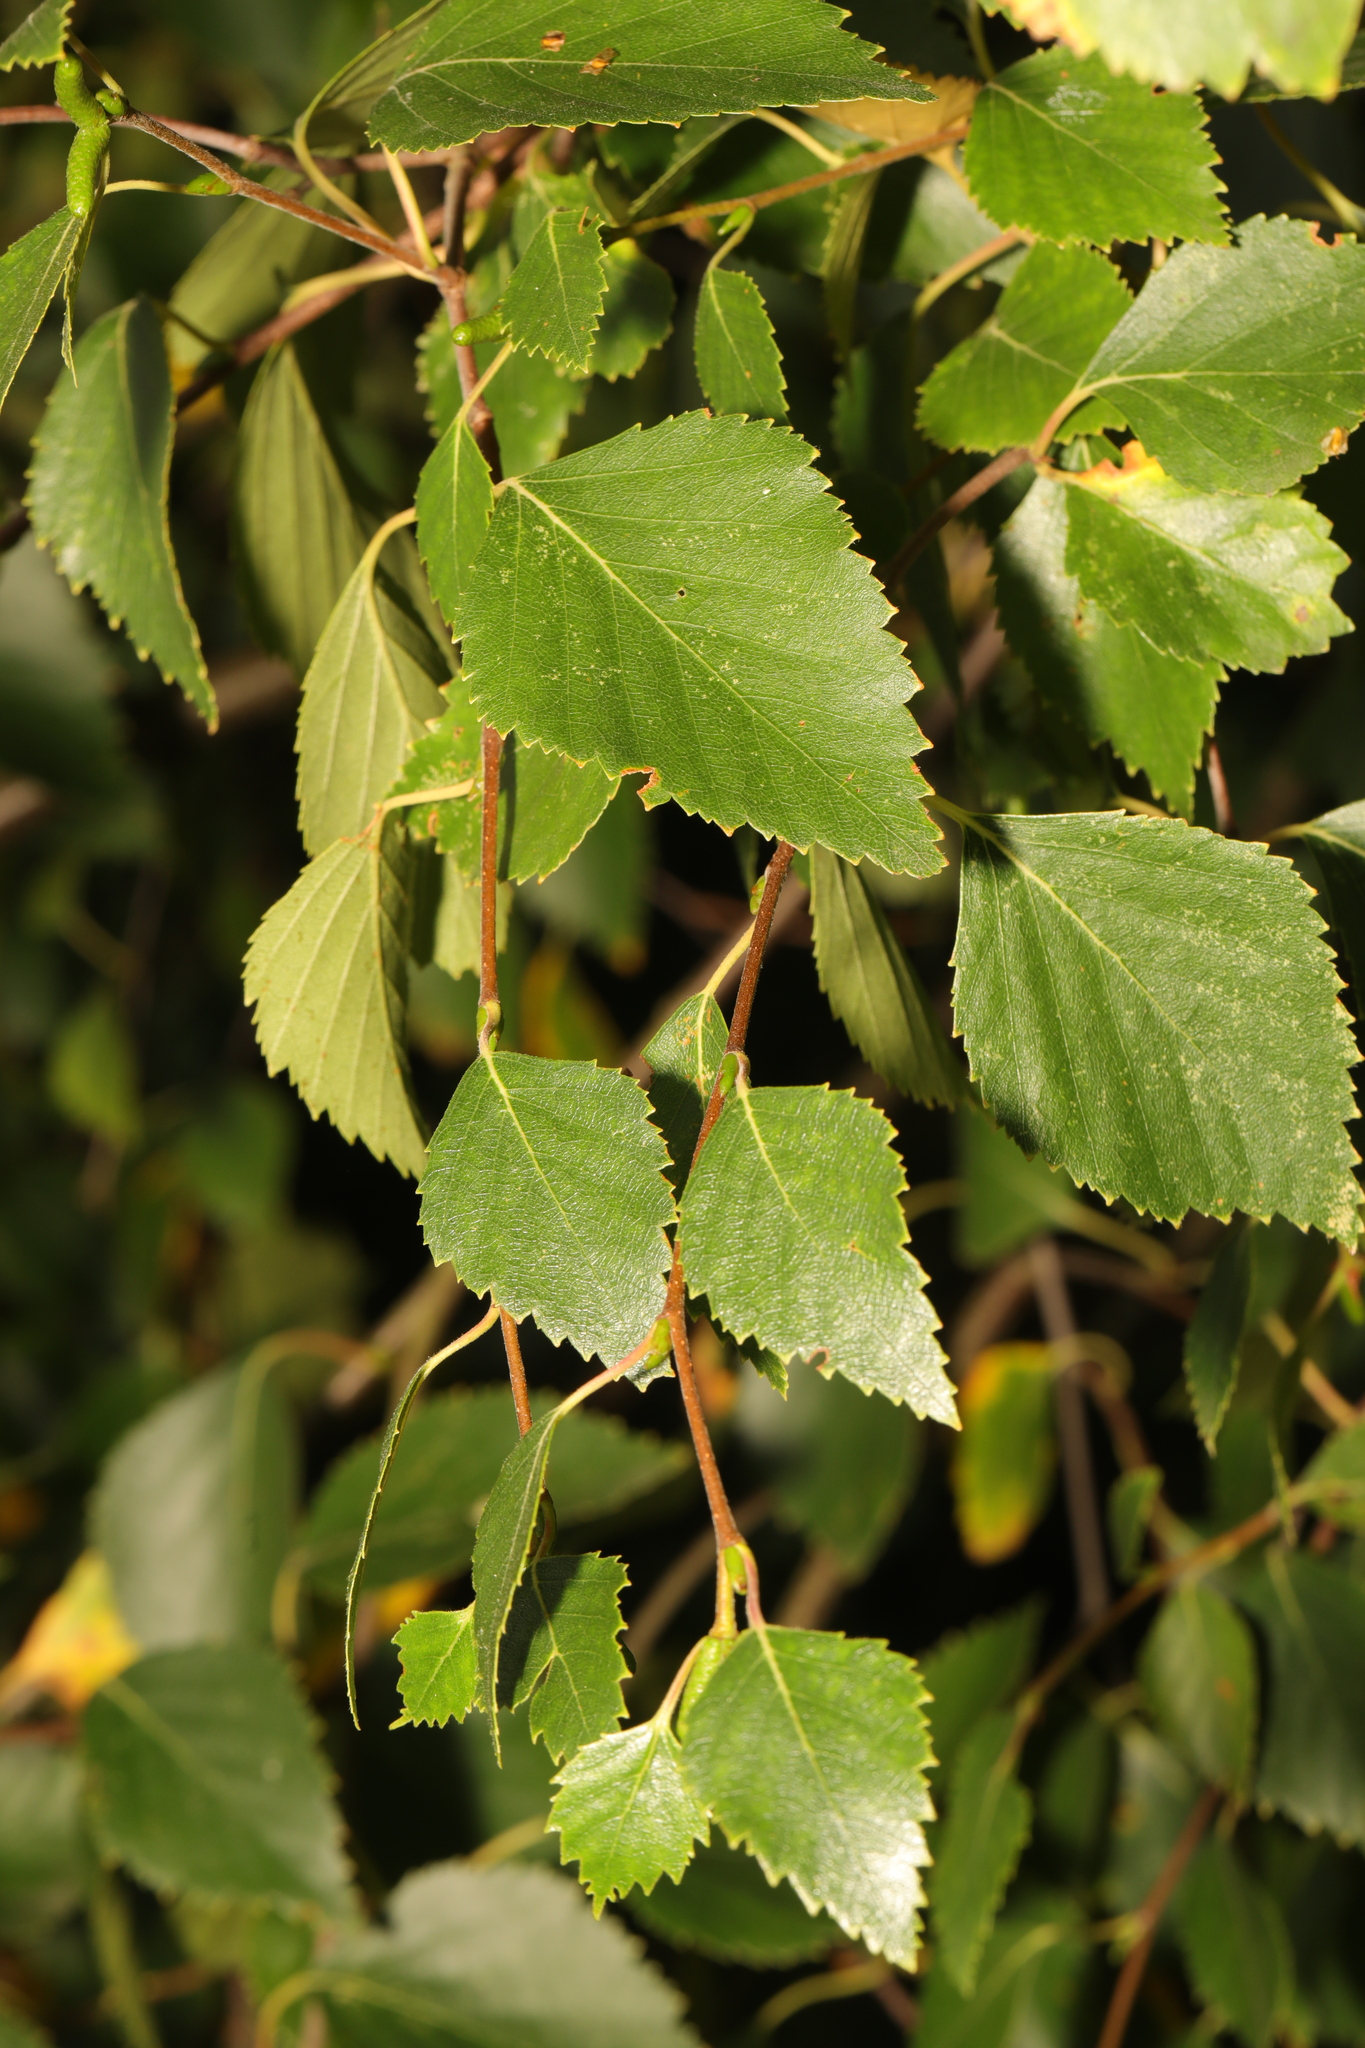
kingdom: Plantae
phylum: Tracheophyta
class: Magnoliopsida
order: Fagales
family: Betulaceae
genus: Betula
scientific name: Betula pendula
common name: Silver birch
